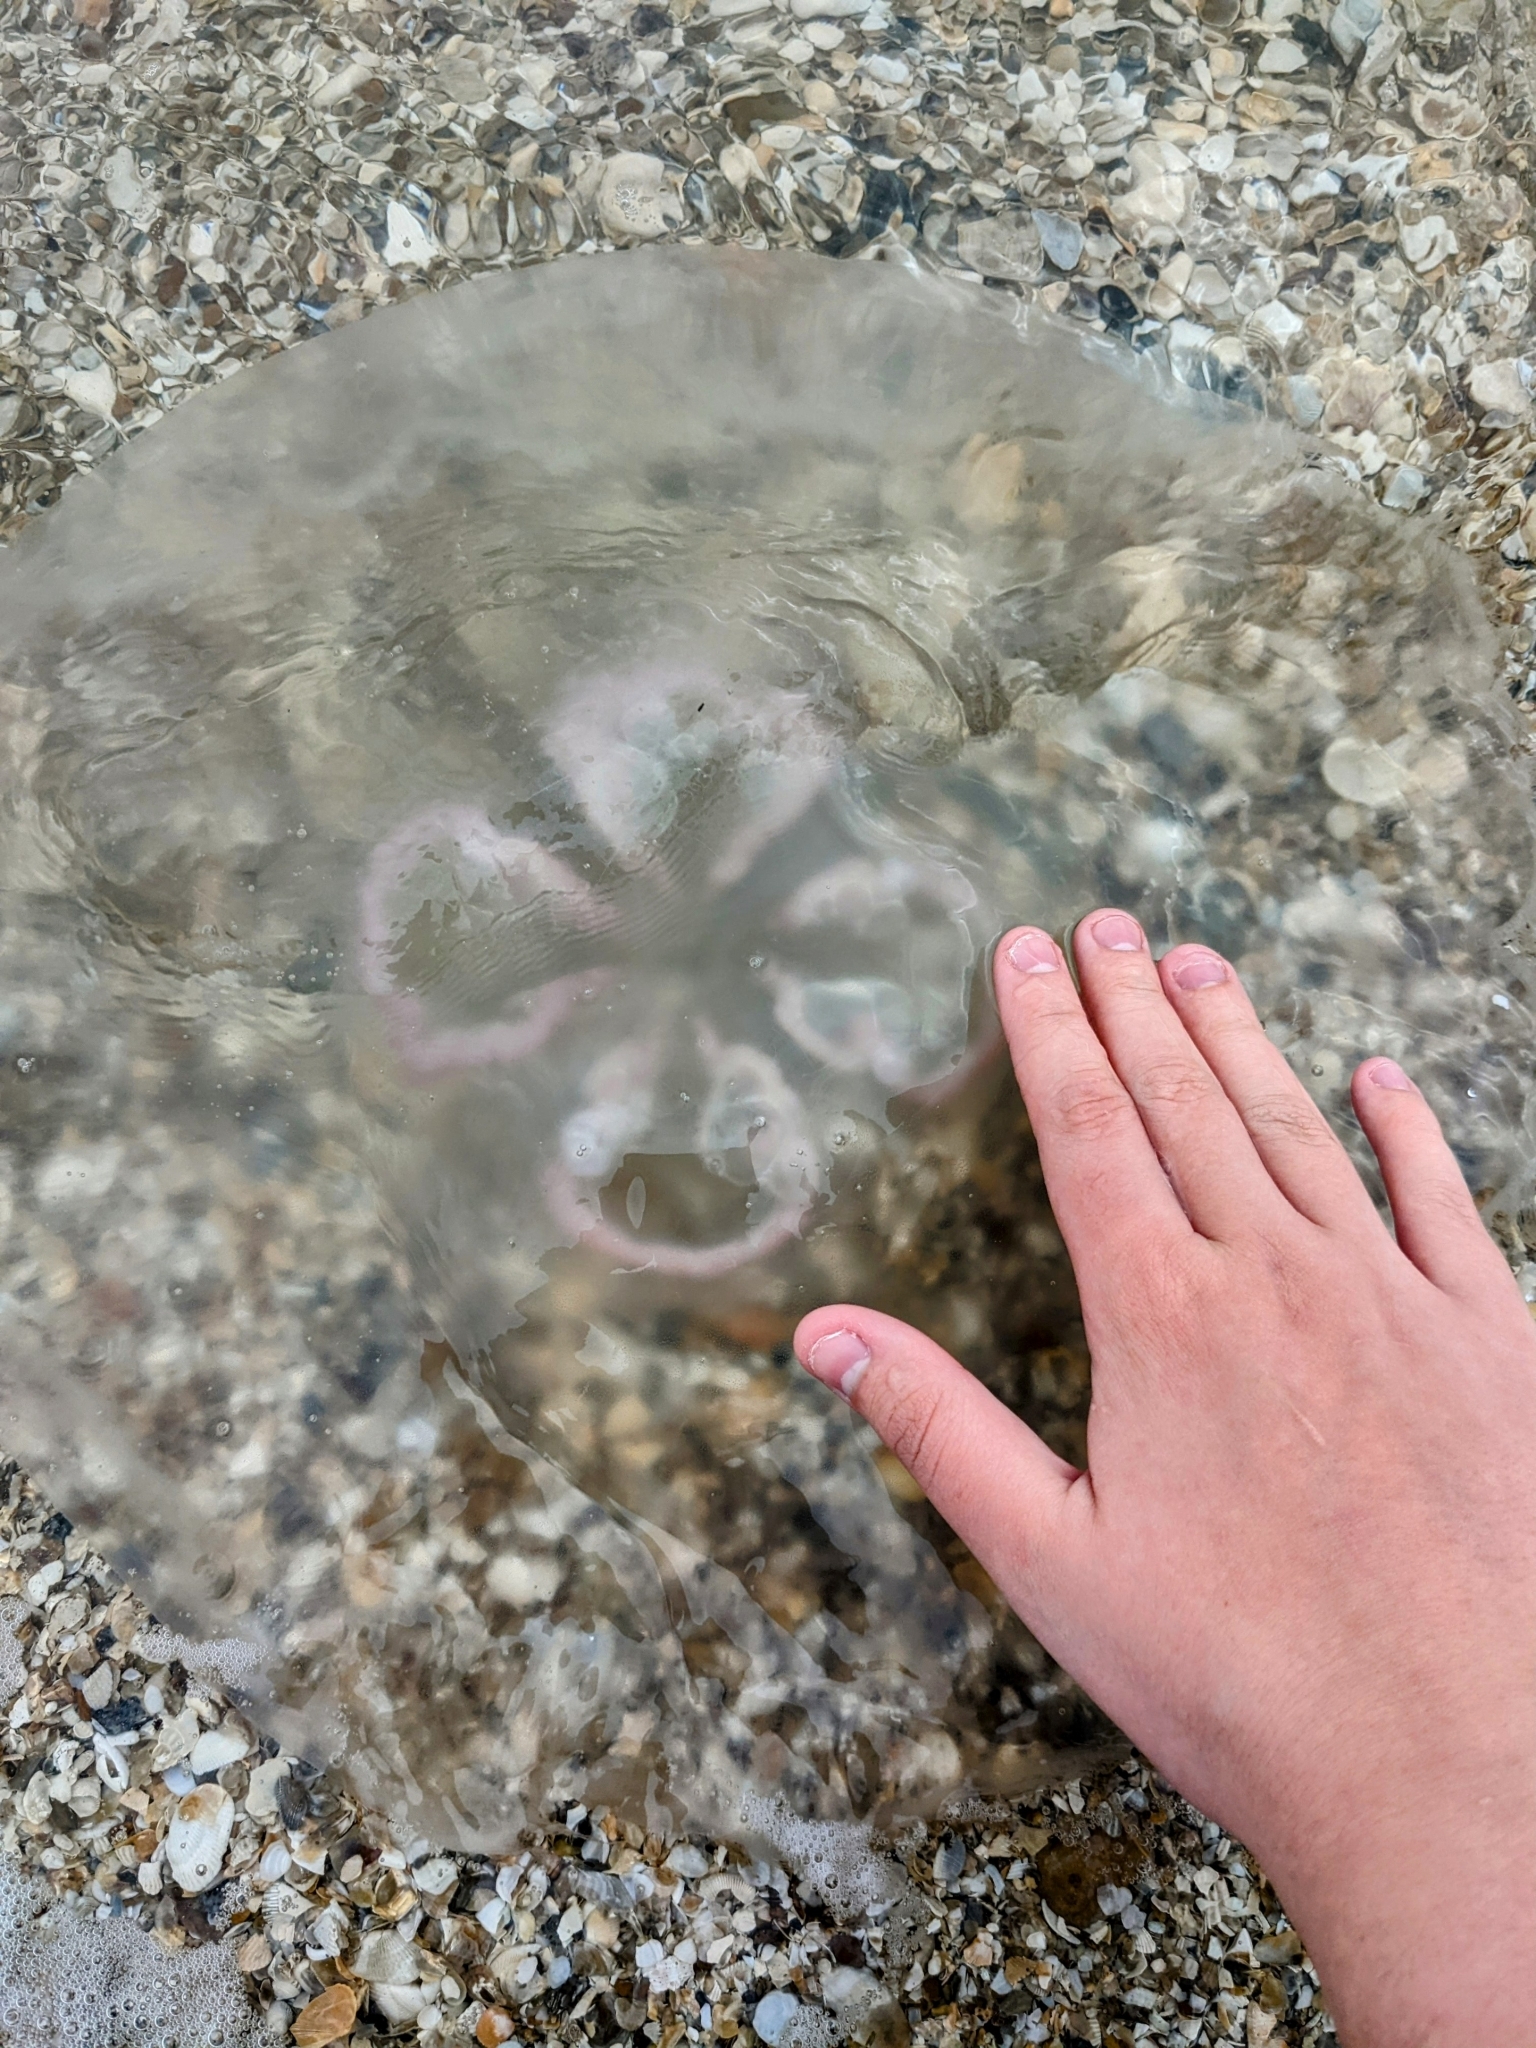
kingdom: Animalia
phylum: Cnidaria
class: Scyphozoa
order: Semaeostomeae
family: Ulmaridae
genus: Aurelia
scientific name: Aurelia marginalis
